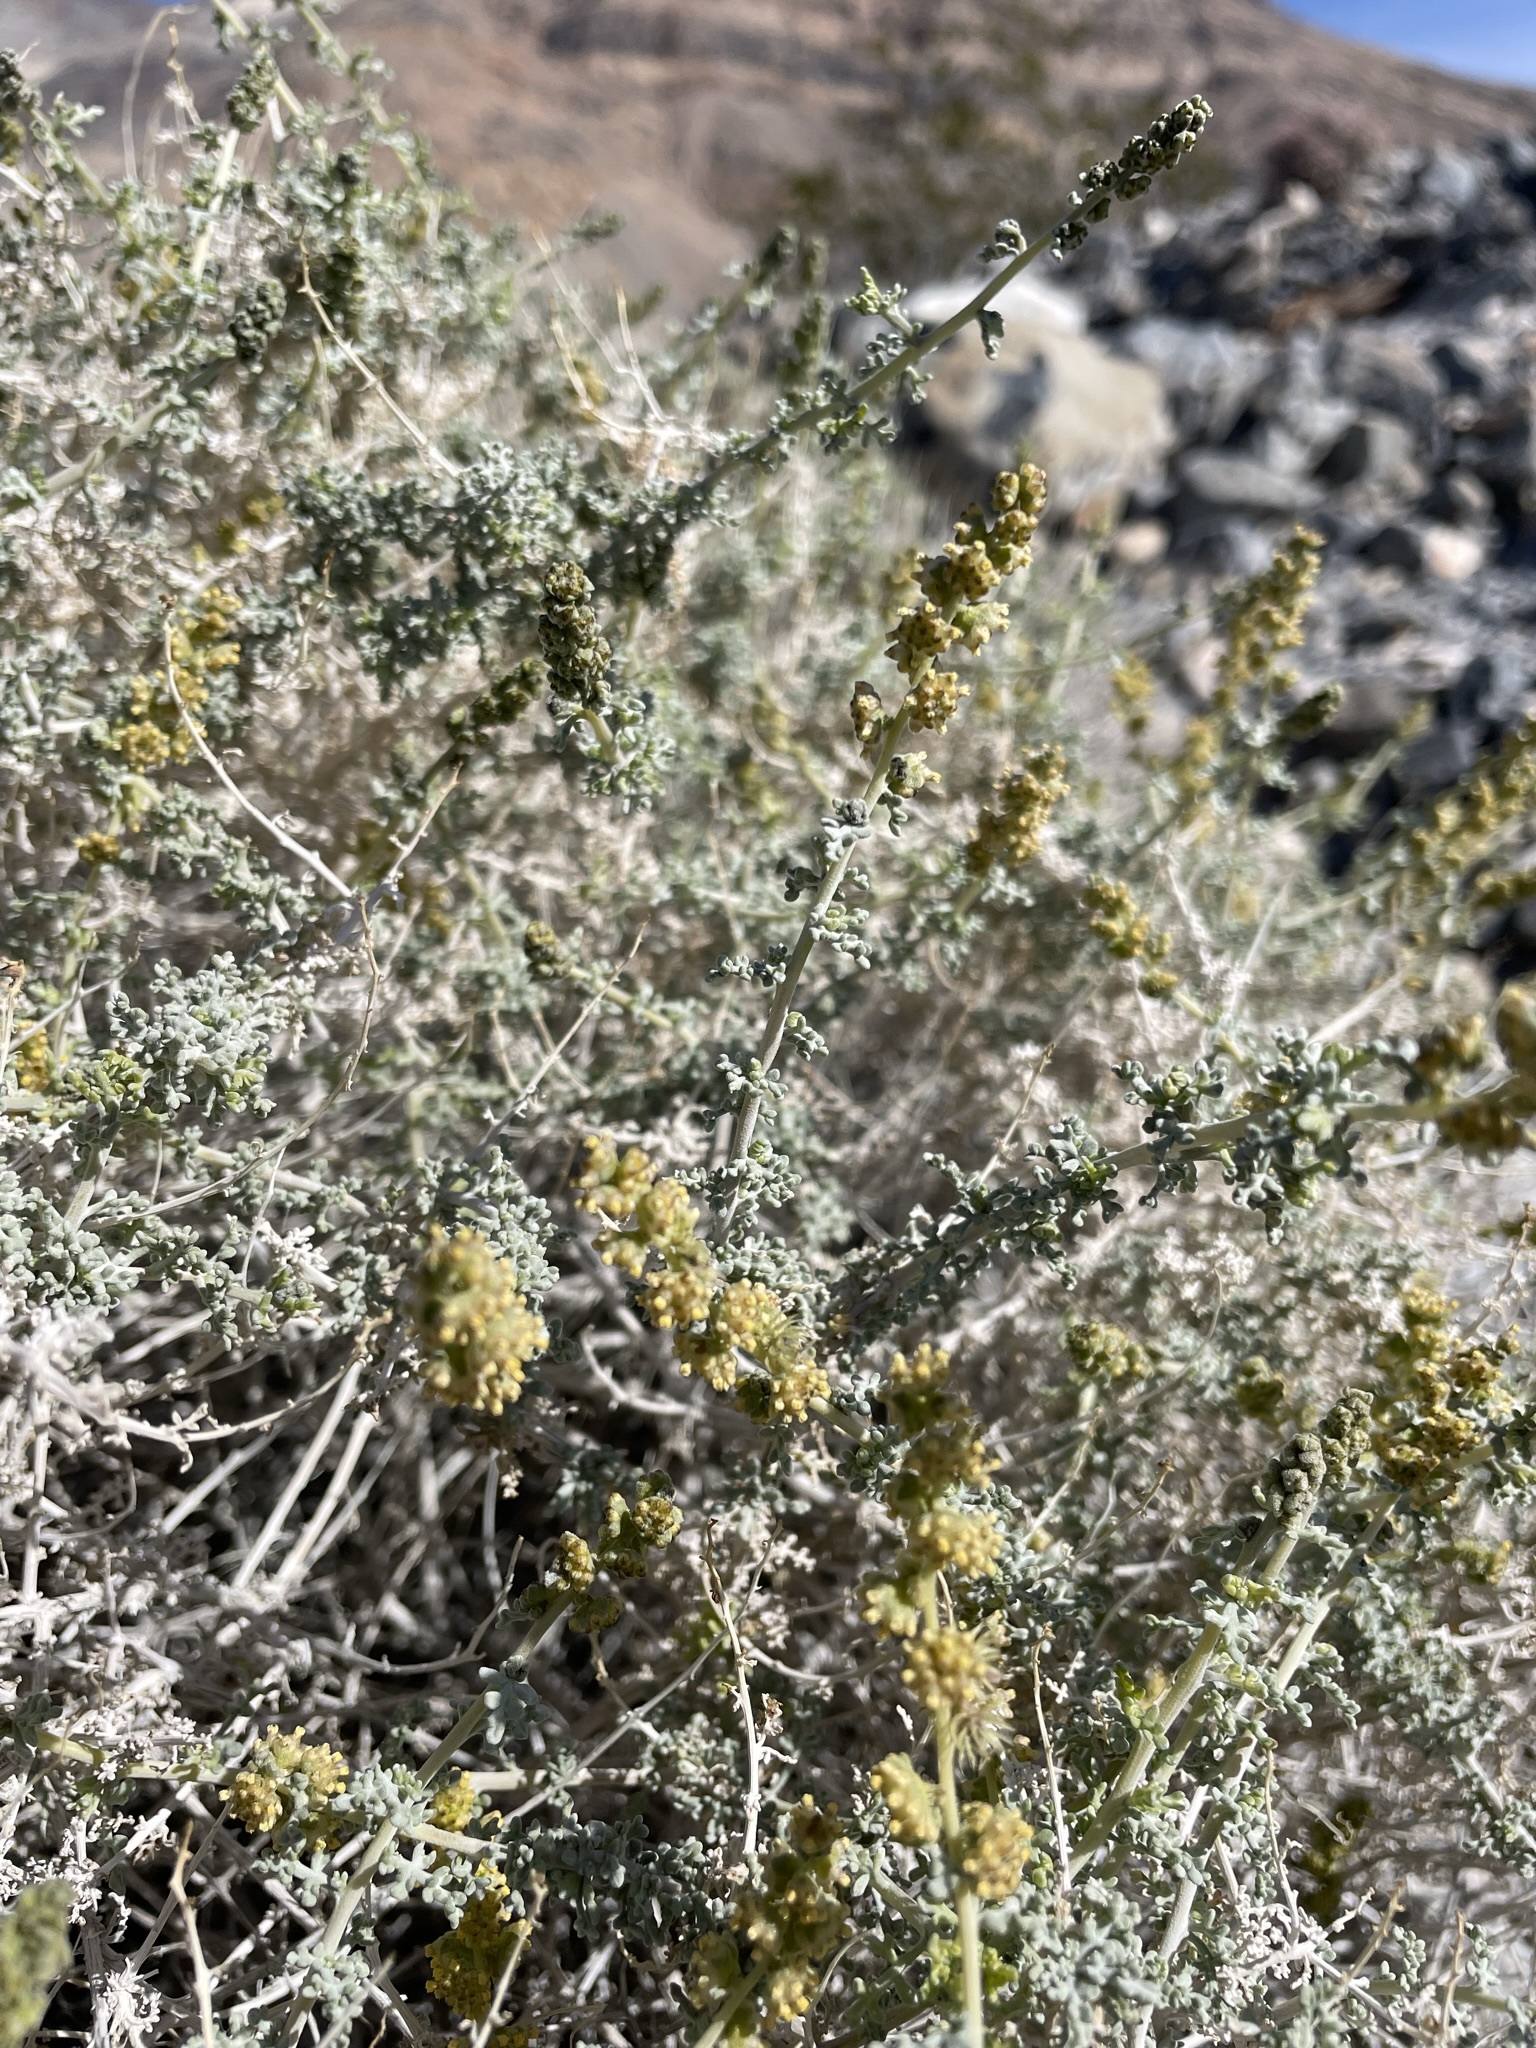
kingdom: Plantae
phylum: Tracheophyta
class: Magnoliopsida
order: Asterales
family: Asteraceae
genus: Ambrosia
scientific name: Ambrosia dumosa
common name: Bur-sage
